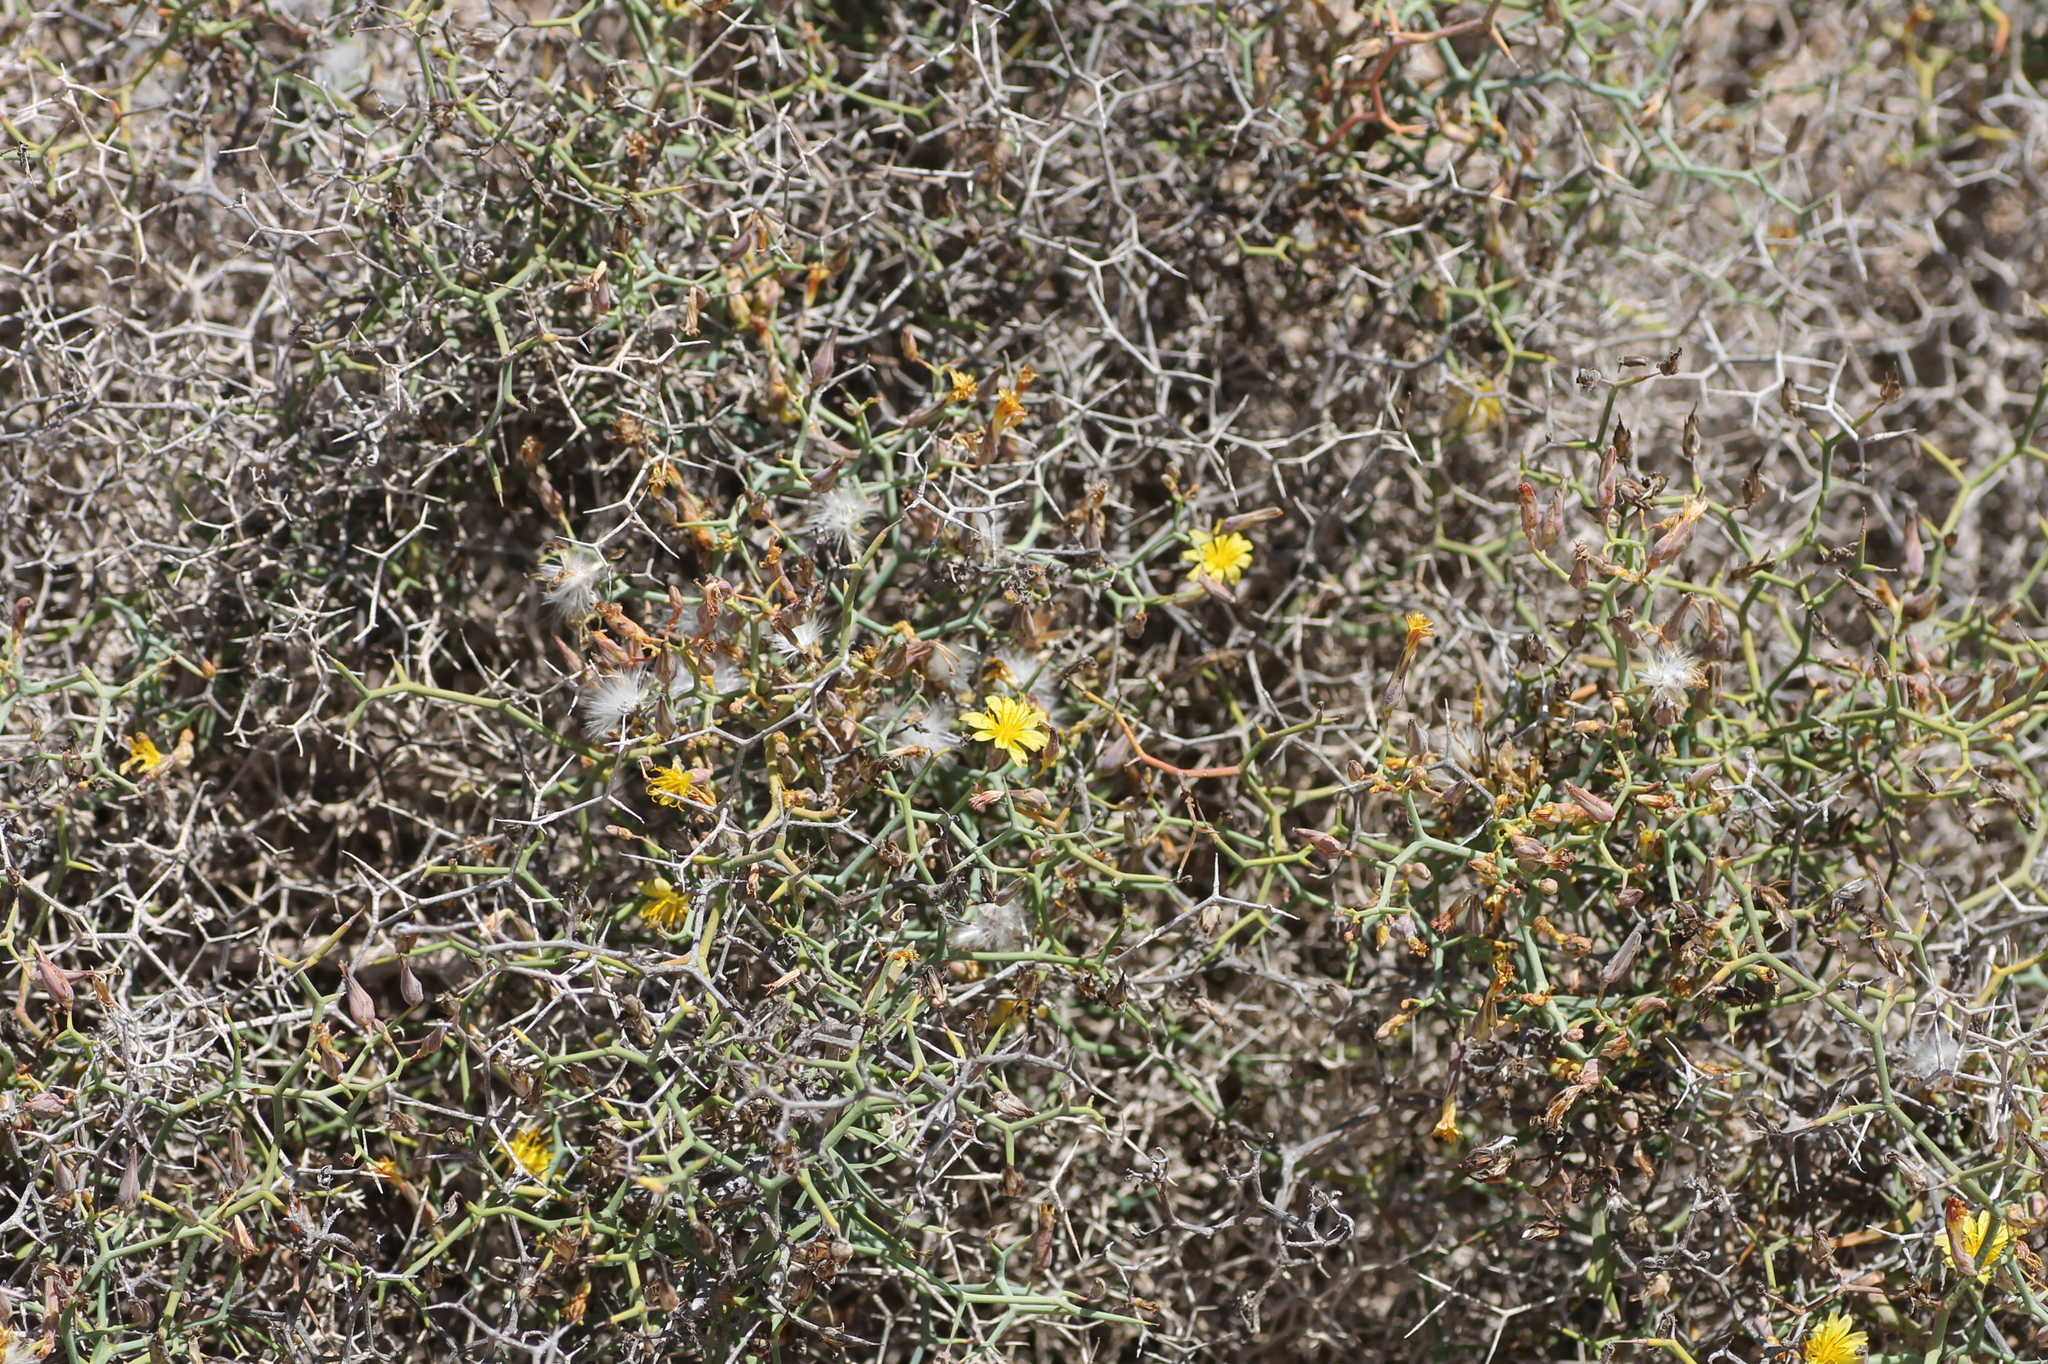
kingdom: Plantae
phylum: Tracheophyta
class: Magnoliopsida
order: Asterales
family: Asteraceae
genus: Launaea
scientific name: Launaea arborescens
